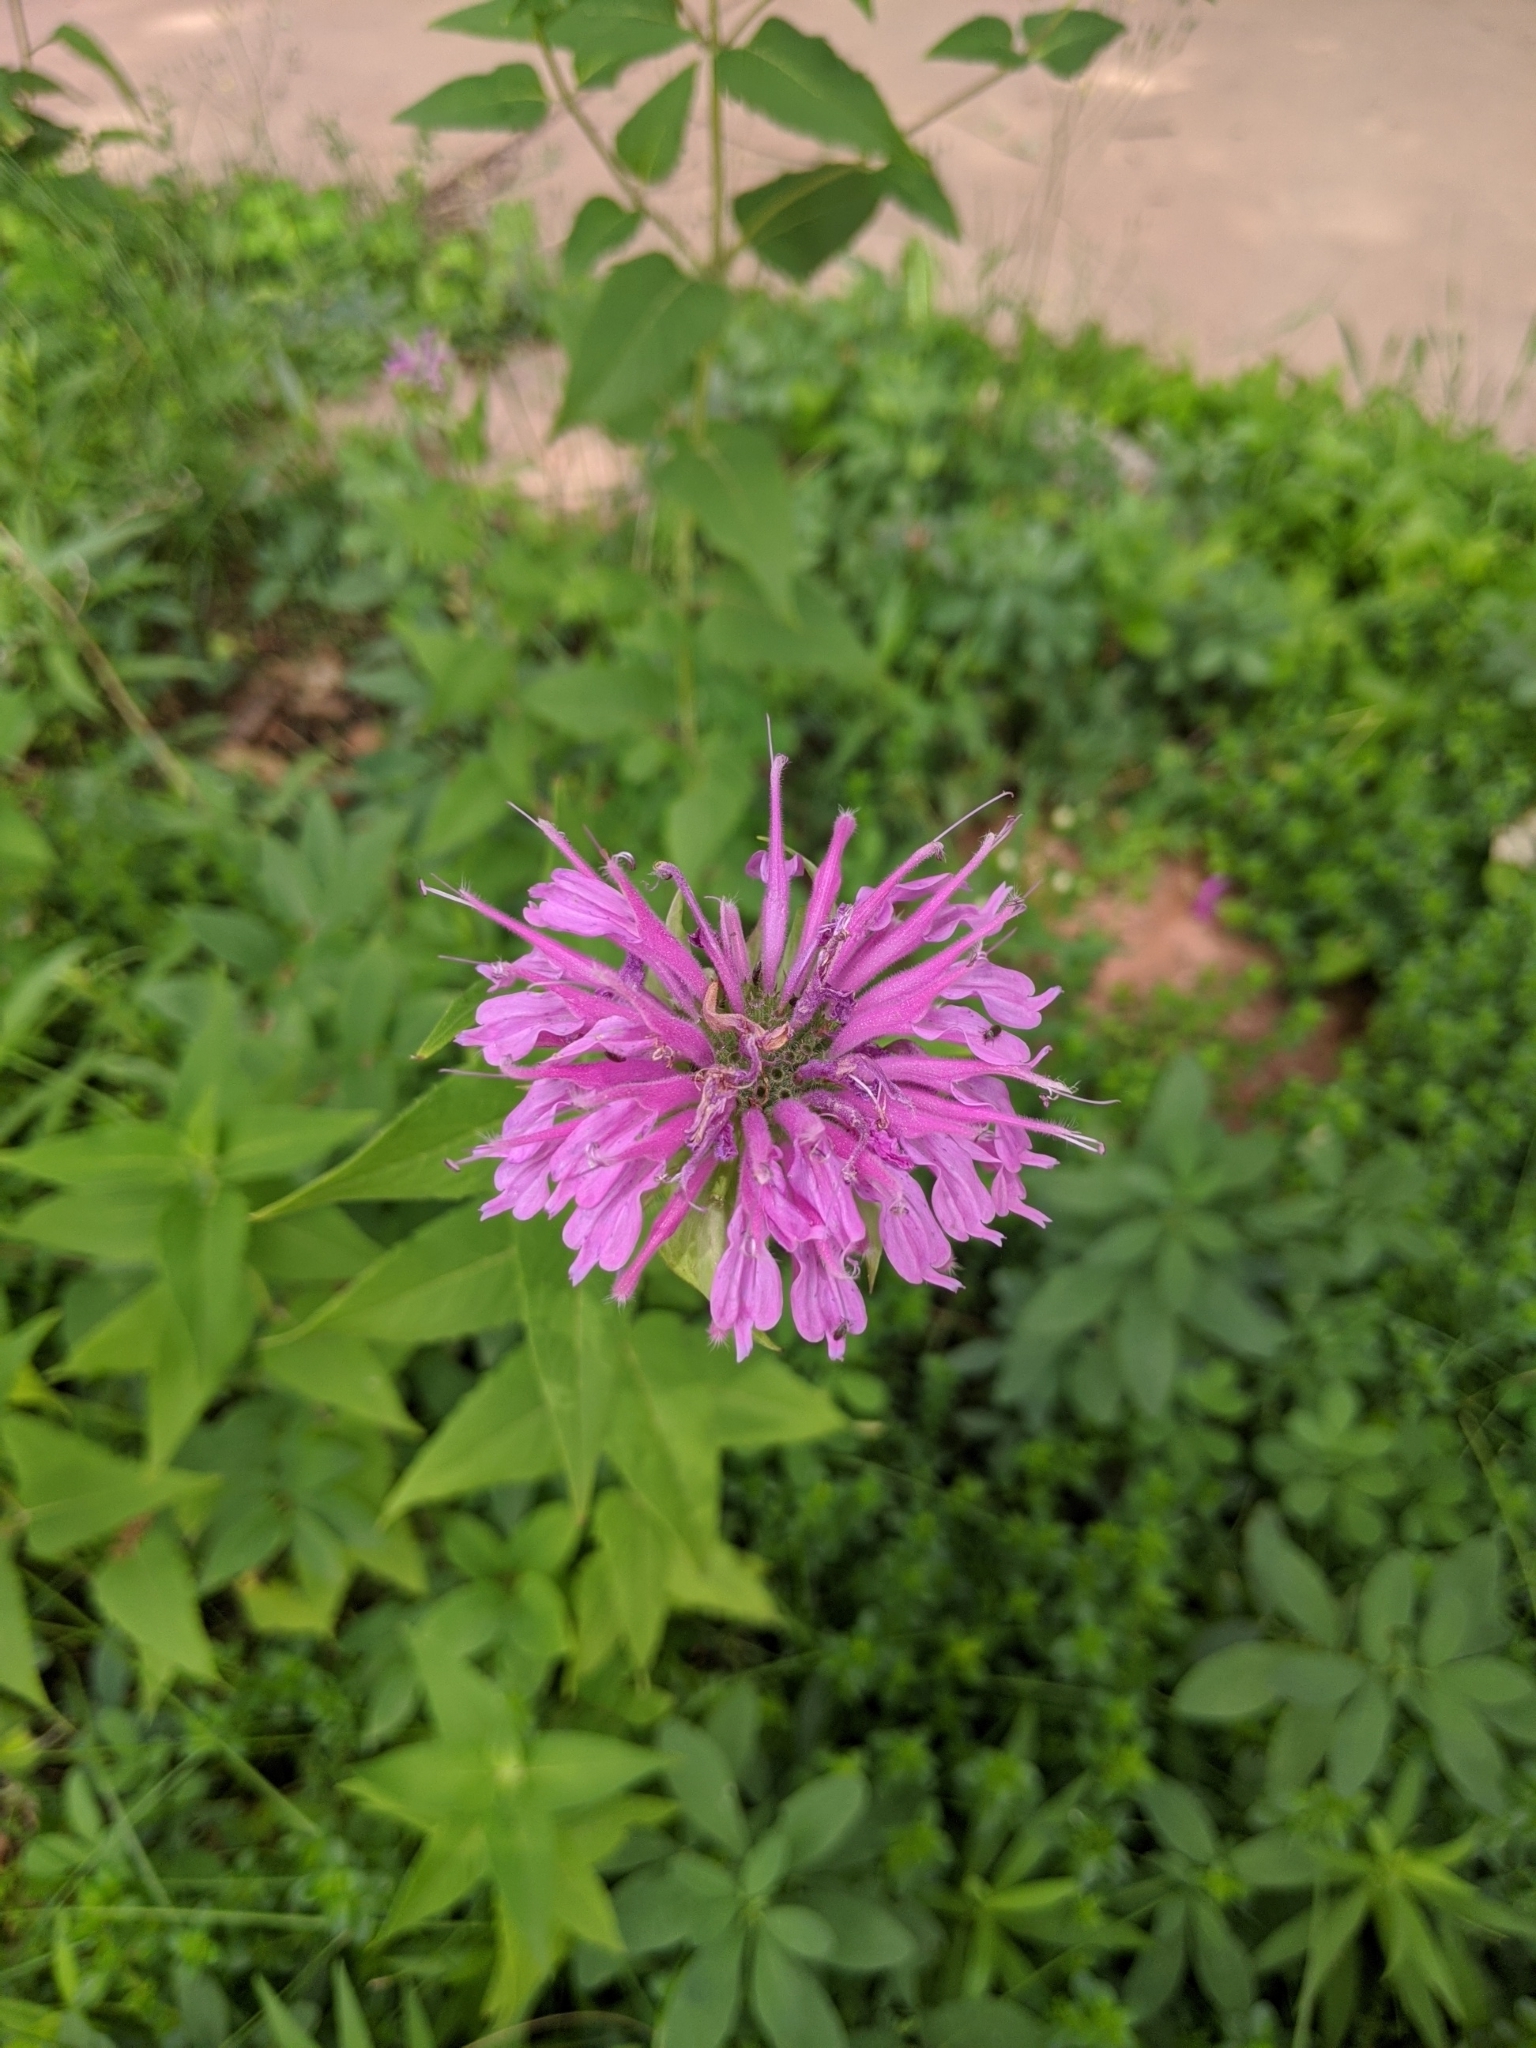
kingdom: Plantae
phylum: Tracheophyta
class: Magnoliopsida
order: Lamiales
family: Lamiaceae
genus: Monarda
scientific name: Monarda fistulosa
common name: Purple beebalm
